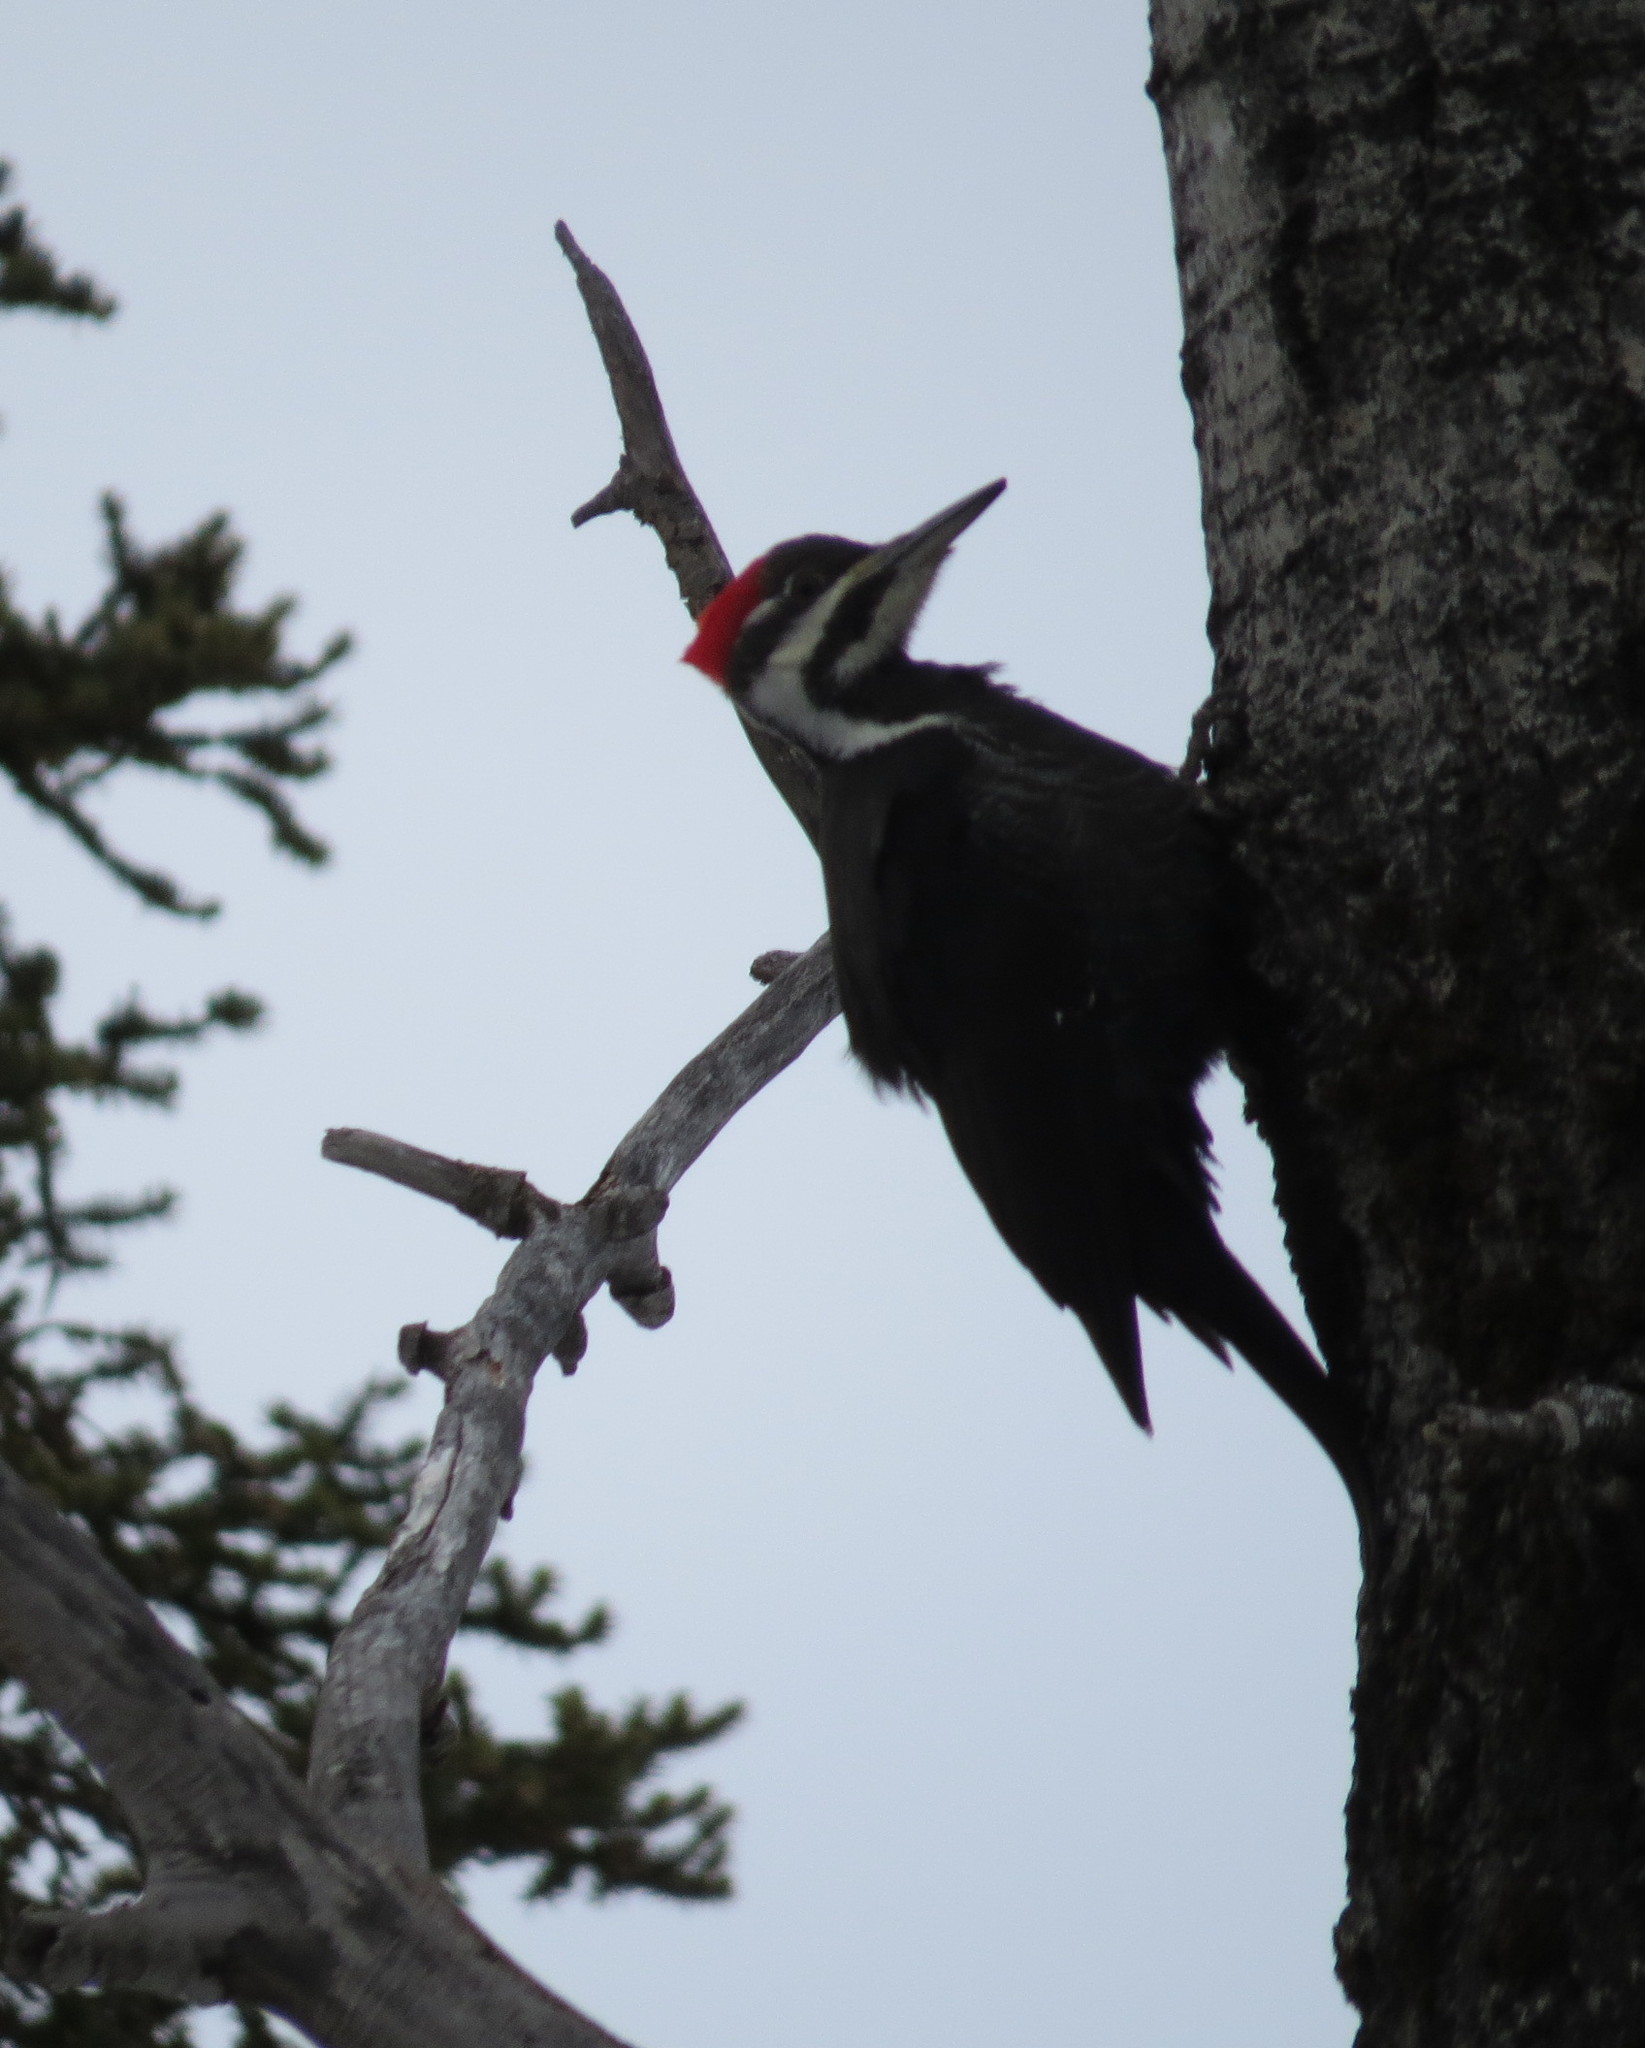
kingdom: Animalia
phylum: Chordata
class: Aves
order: Piciformes
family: Picidae
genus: Dryocopus
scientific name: Dryocopus pileatus
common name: Pileated woodpecker
